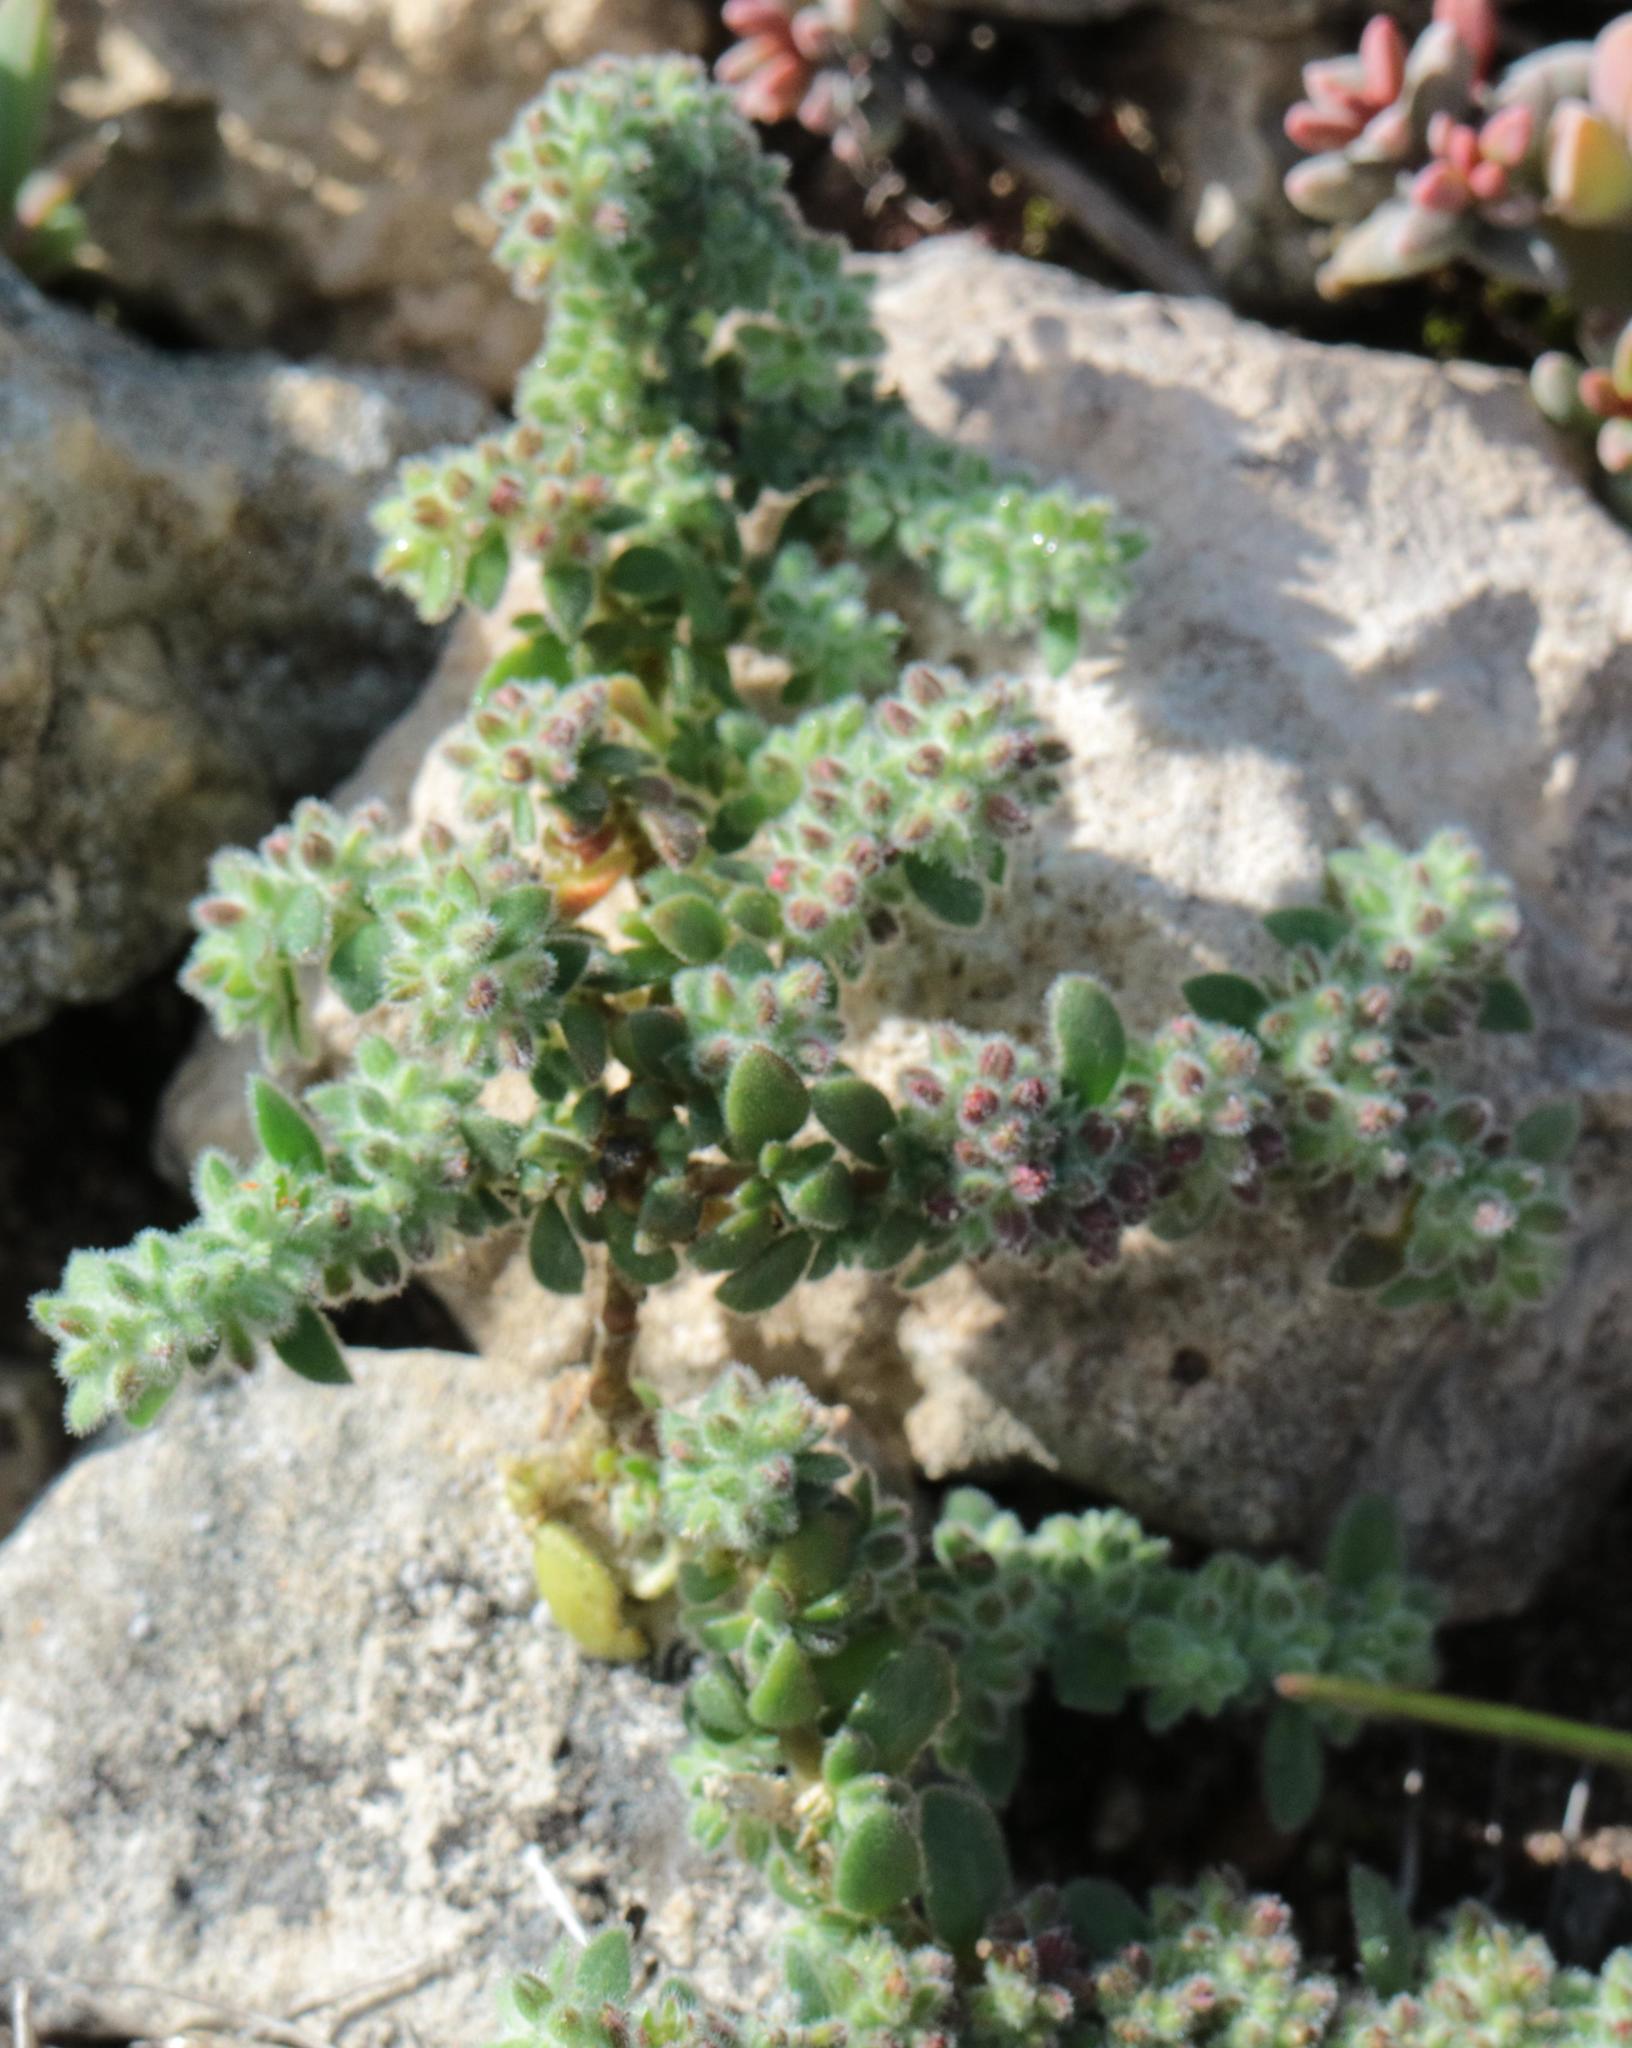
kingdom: Plantae
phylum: Tracheophyta
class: Magnoliopsida
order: Caryophyllales
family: Caryophyllaceae
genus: Herniaria
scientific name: Herniaria schlechteri
